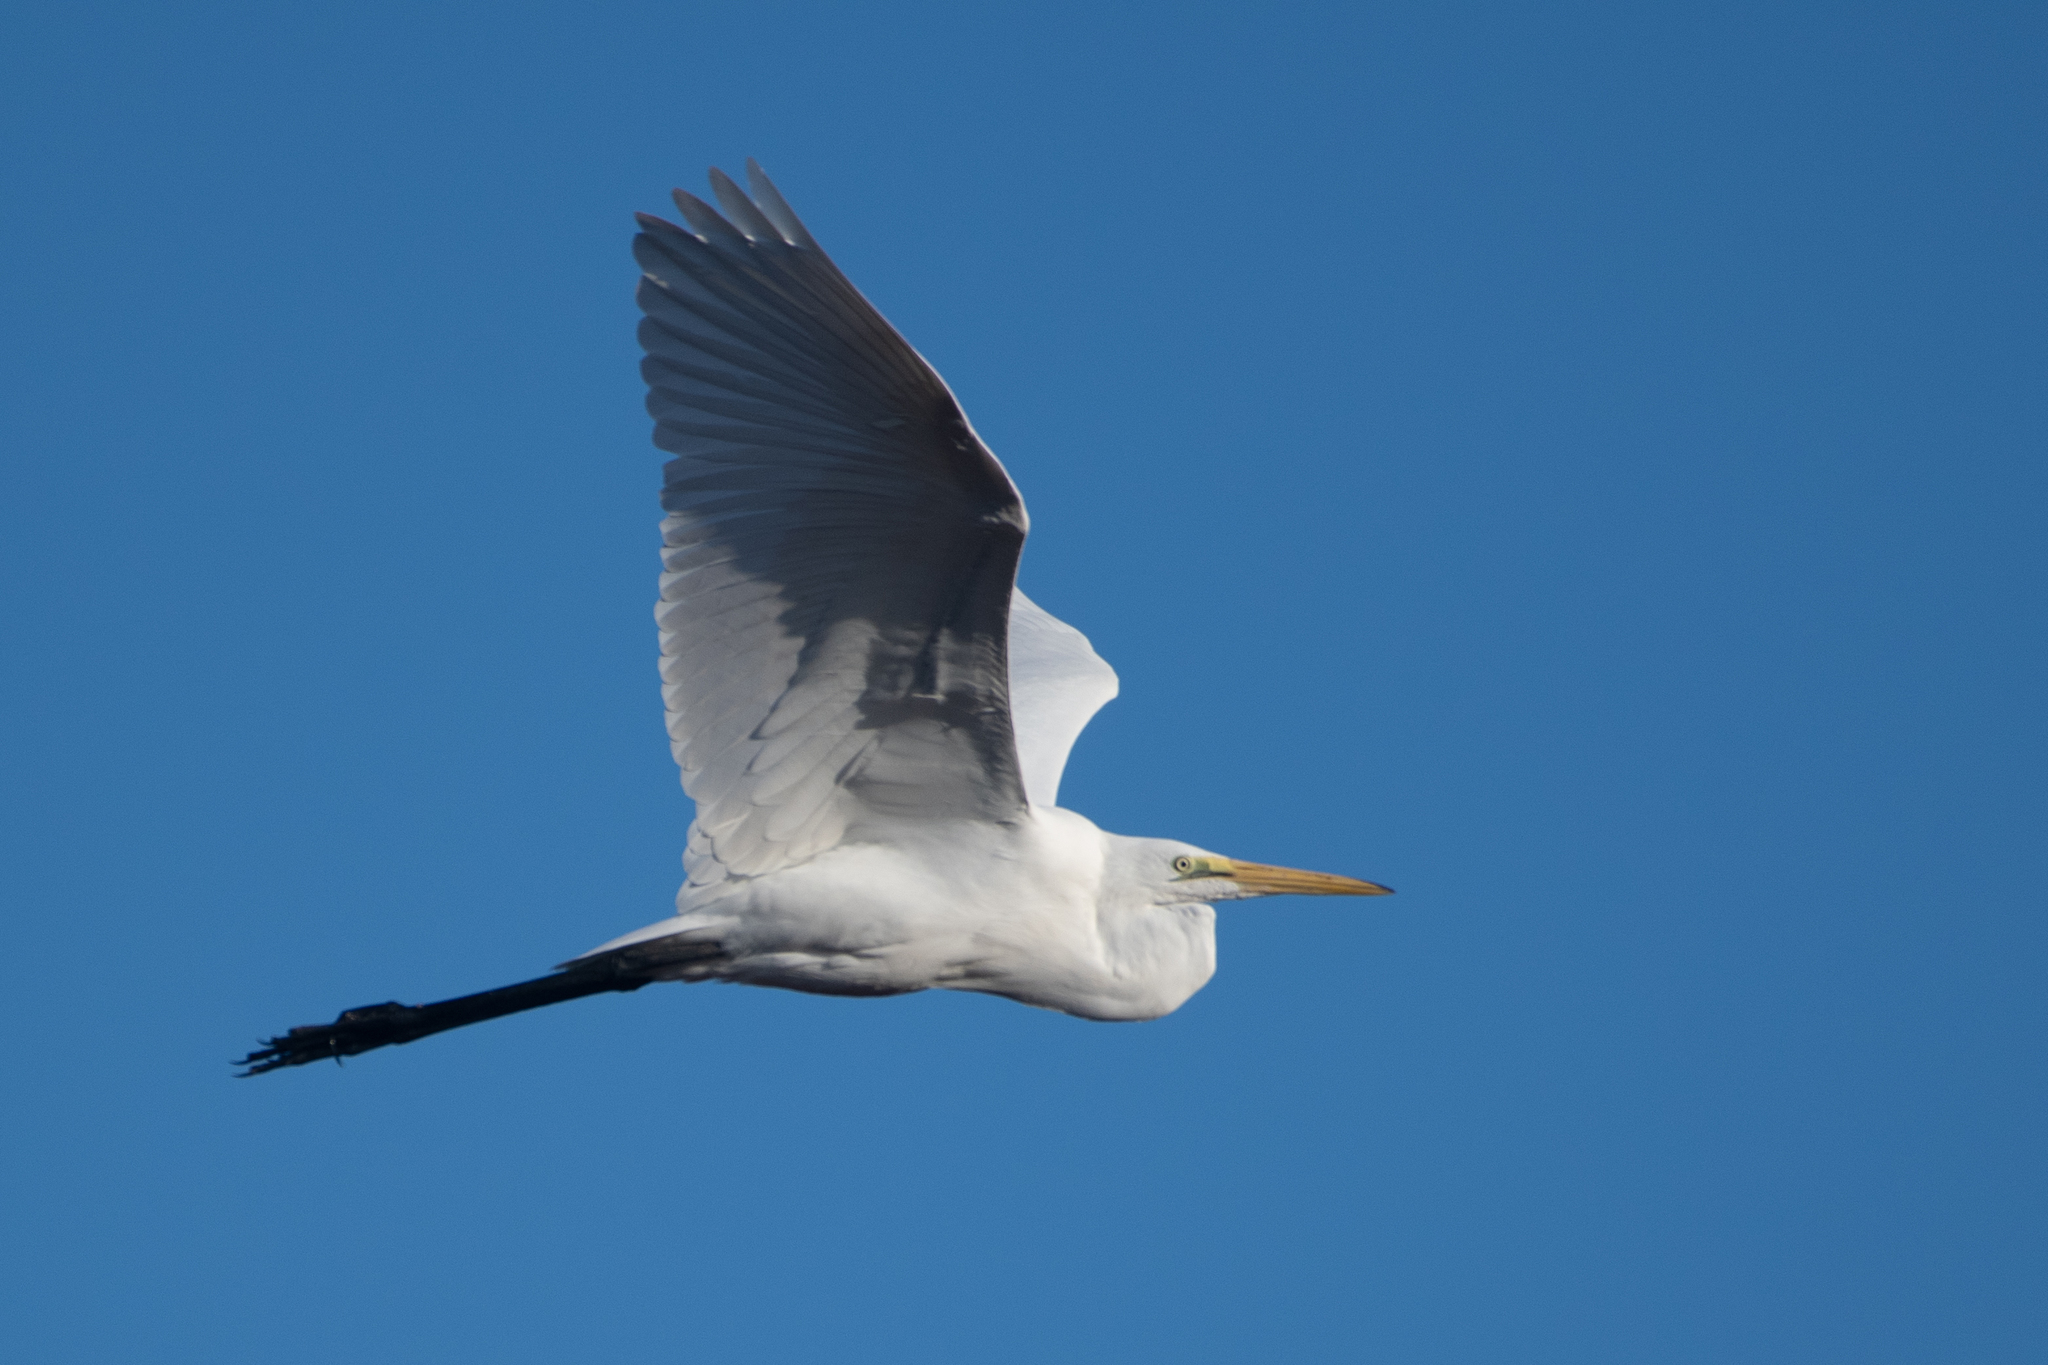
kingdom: Animalia
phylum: Chordata
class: Aves
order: Pelecaniformes
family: Ardeidae
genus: Ardea
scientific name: Ardea alba
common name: Great egret
